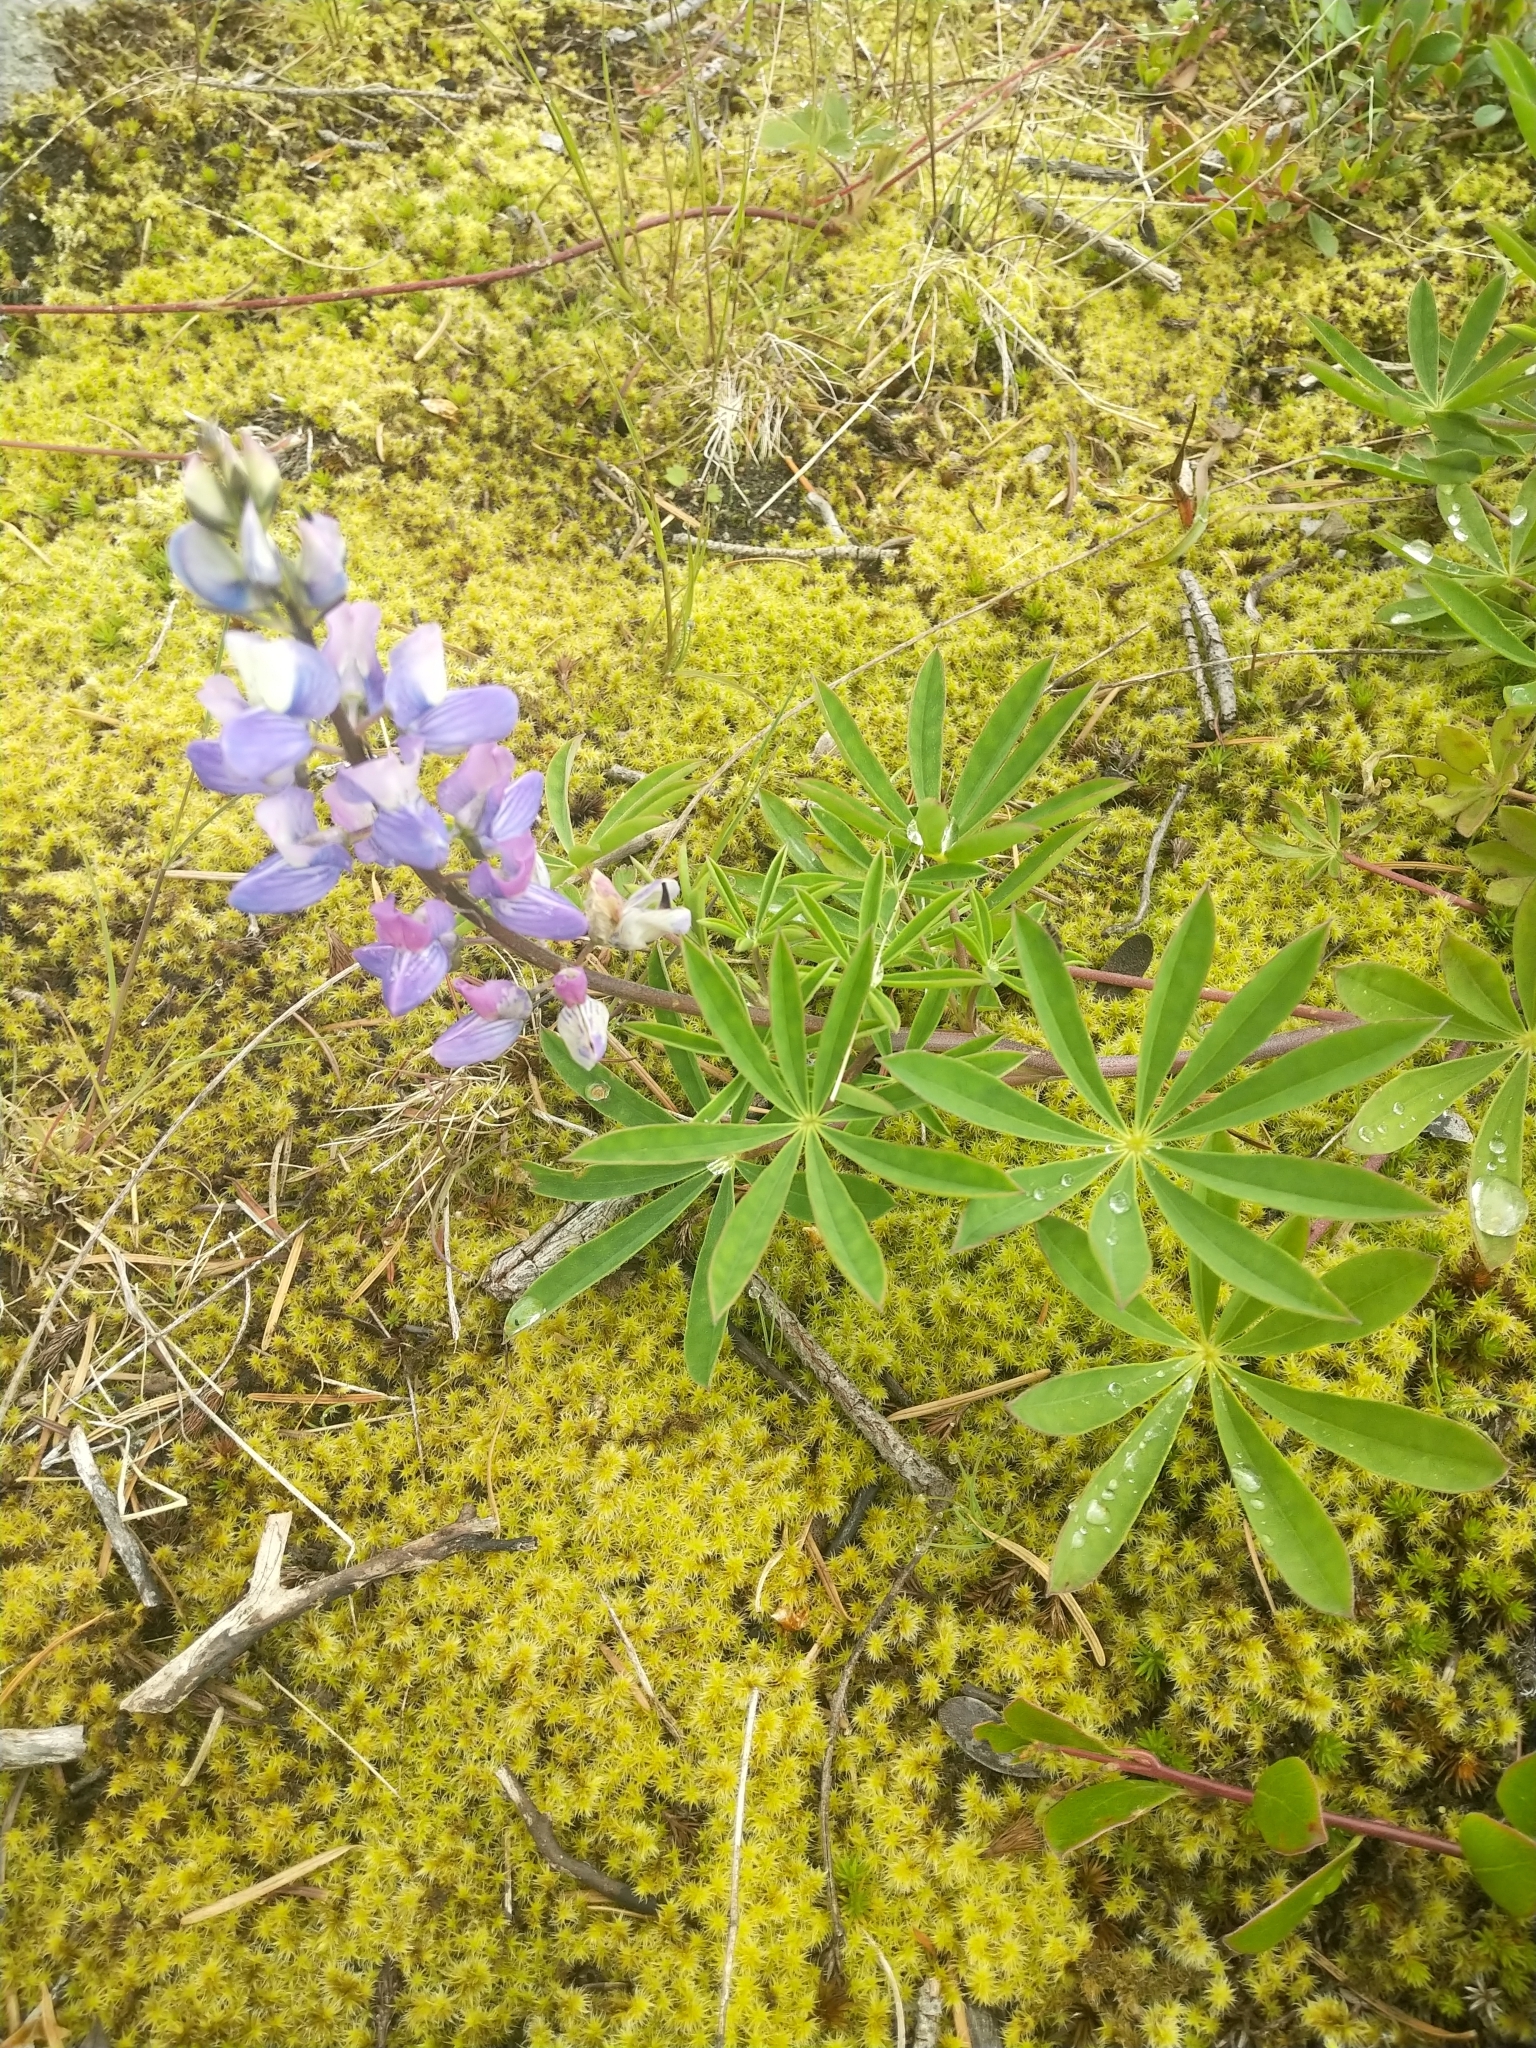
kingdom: Plantae
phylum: Tracheophyta
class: Magnoliopsida
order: Fabales
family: Fabaceae
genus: Lupinus
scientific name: Lupinus arcticus
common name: Arctic lupine
